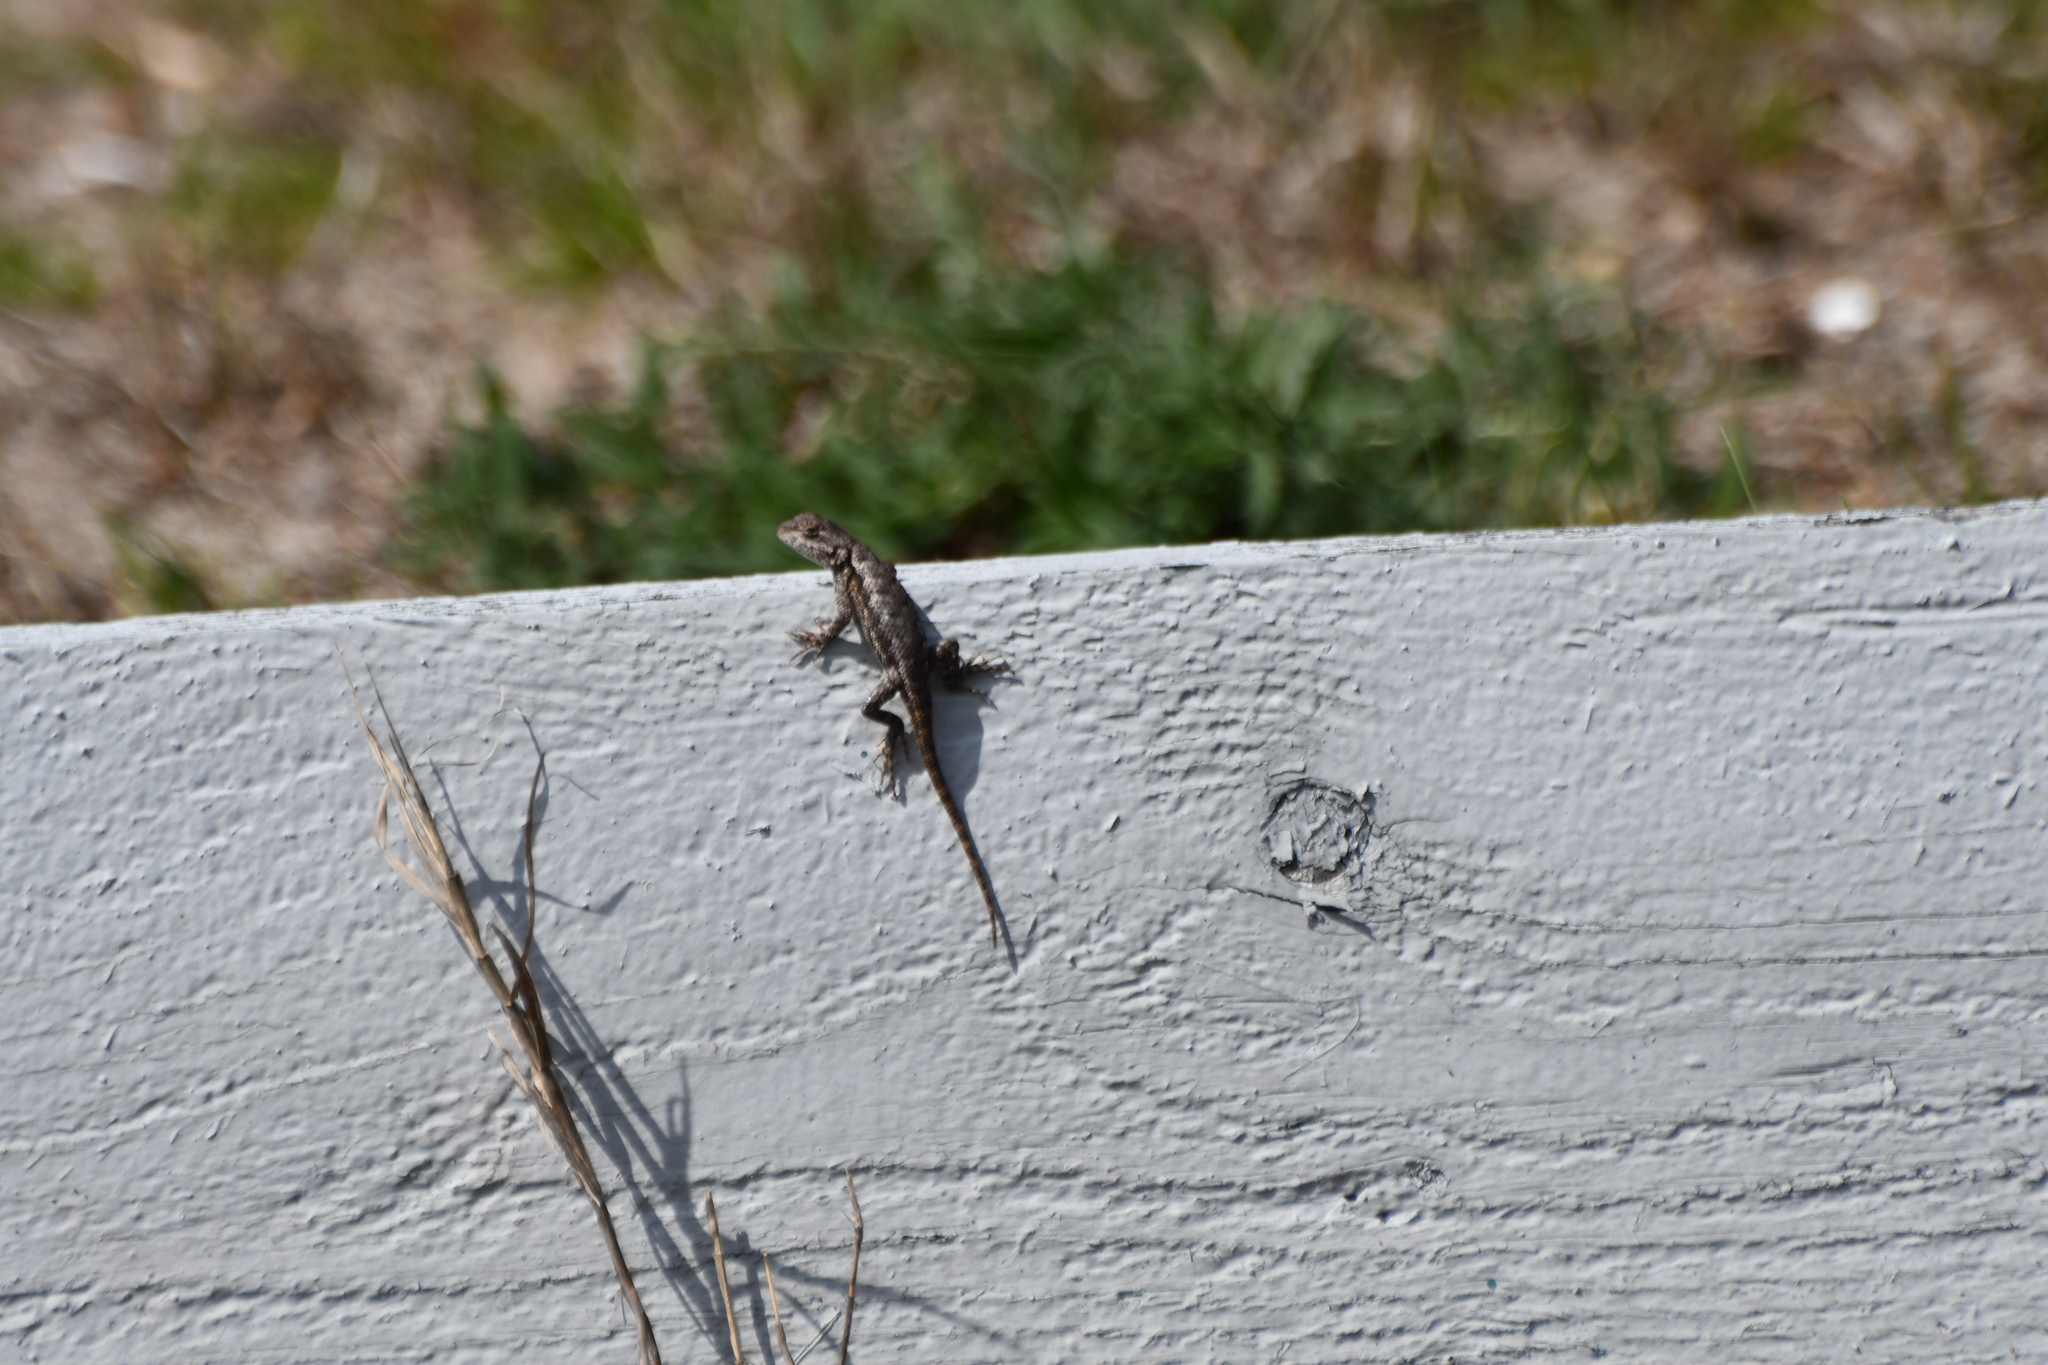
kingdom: Animalia
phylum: Chordata
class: Squamata
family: Phrynosomatidae
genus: Sceloporus
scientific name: Sceloporus undulatus
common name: Eastern fence lizard
